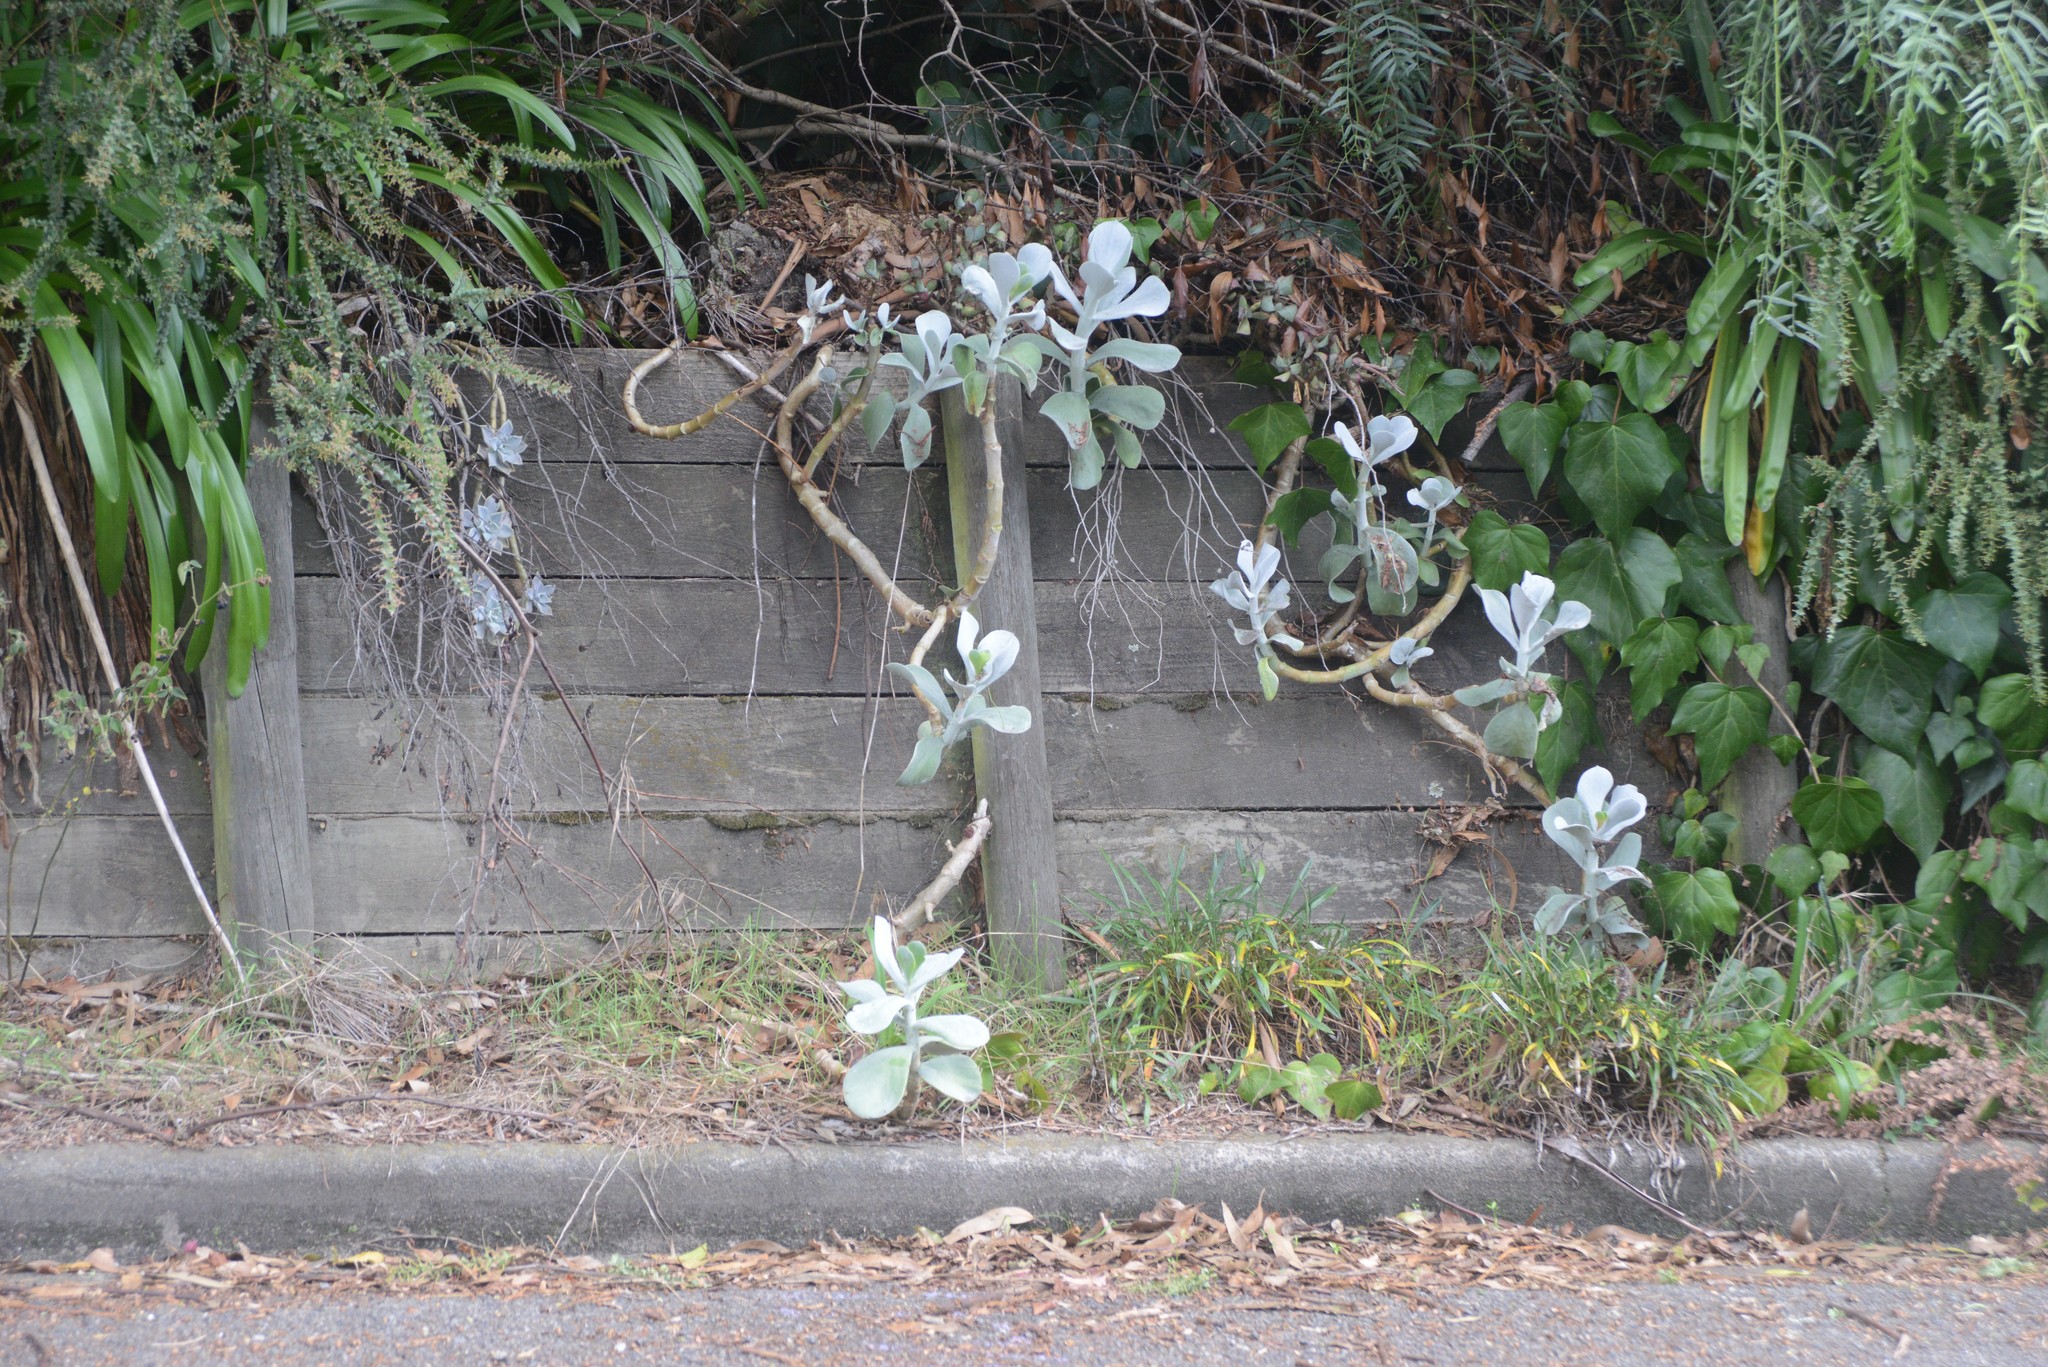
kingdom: Plantae
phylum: Tracheophyta
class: Magnoliopsida
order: Saxifragales
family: Crassulaceae
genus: Cotyledon
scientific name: Cotyledon orbiculata
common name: Pig's ear
